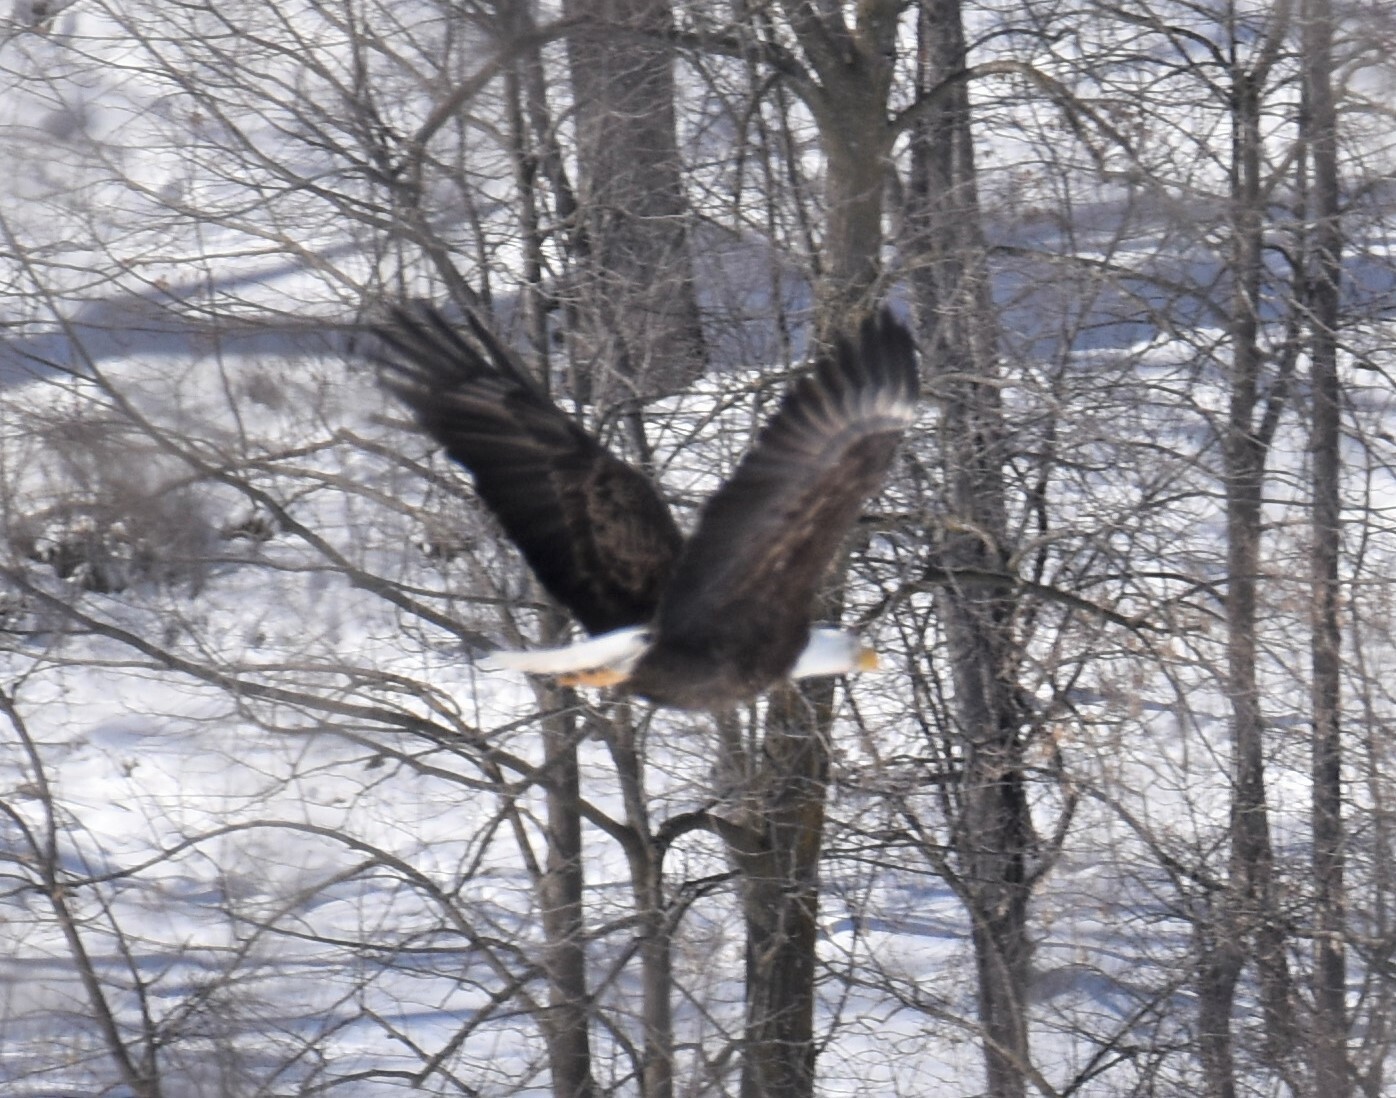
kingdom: Animalia
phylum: Chordata
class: Aves
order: Accipitriformes
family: Accipitridae
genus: Haliaeetus
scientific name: Haliaeetus leucocephalus
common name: Bald eagle
